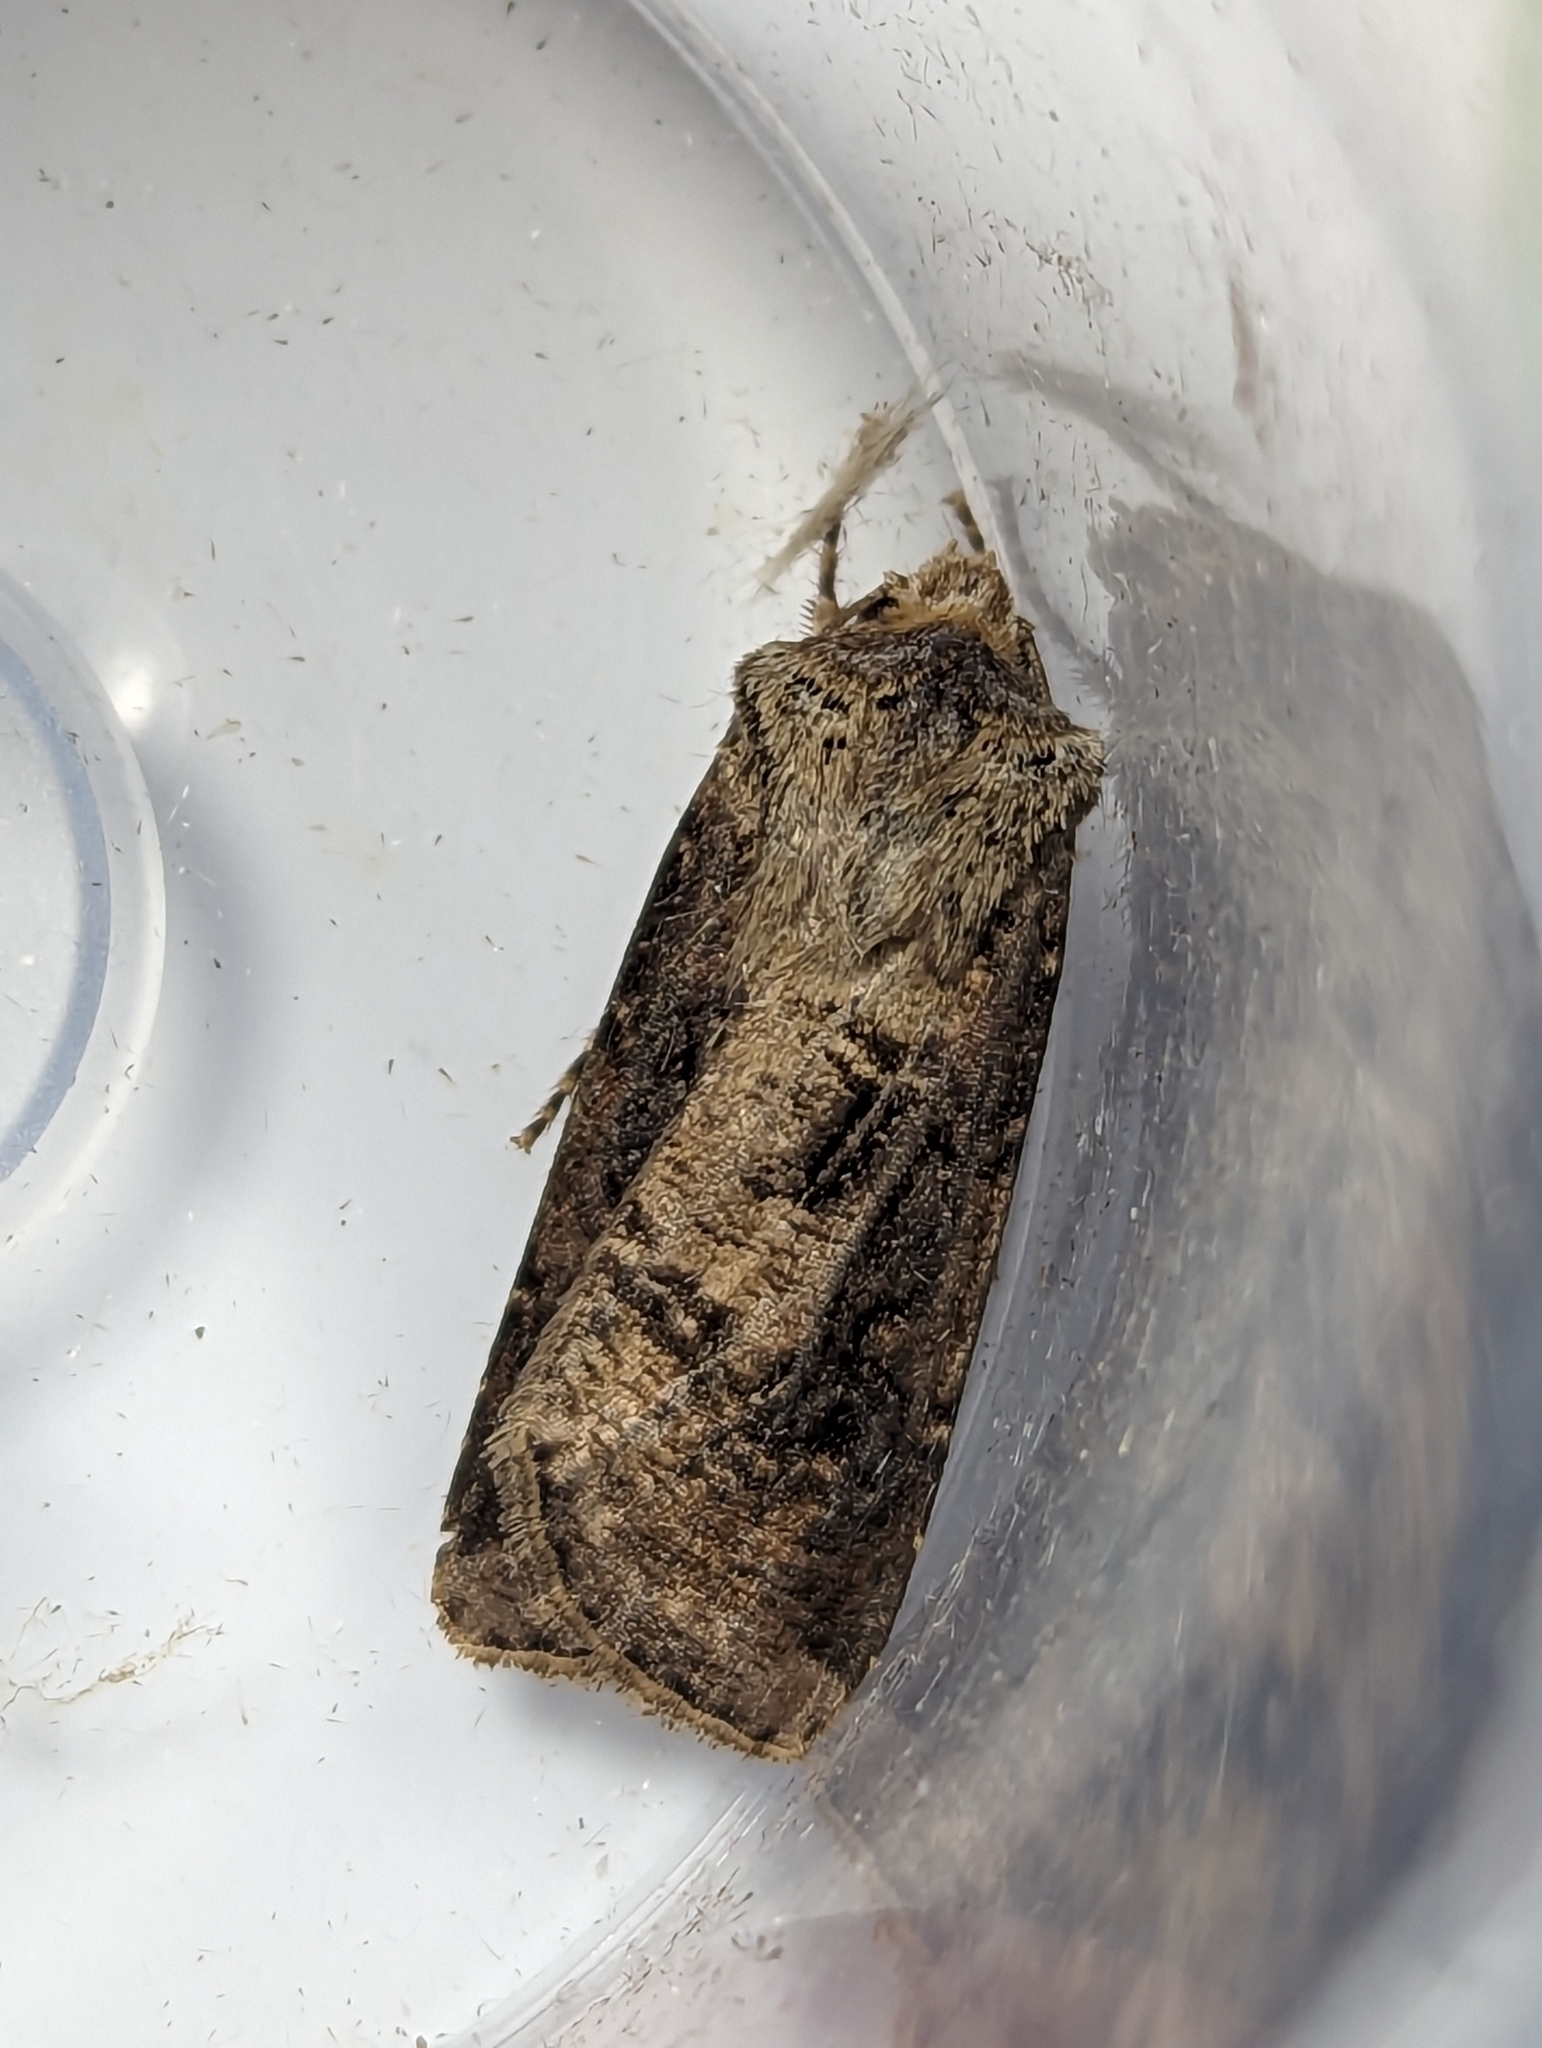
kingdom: Animalia
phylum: Arthropoda
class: Insecta
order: Lepidoptera
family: Noctuidae
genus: Agrotis
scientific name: Agrotis clavis
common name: Heart and club
